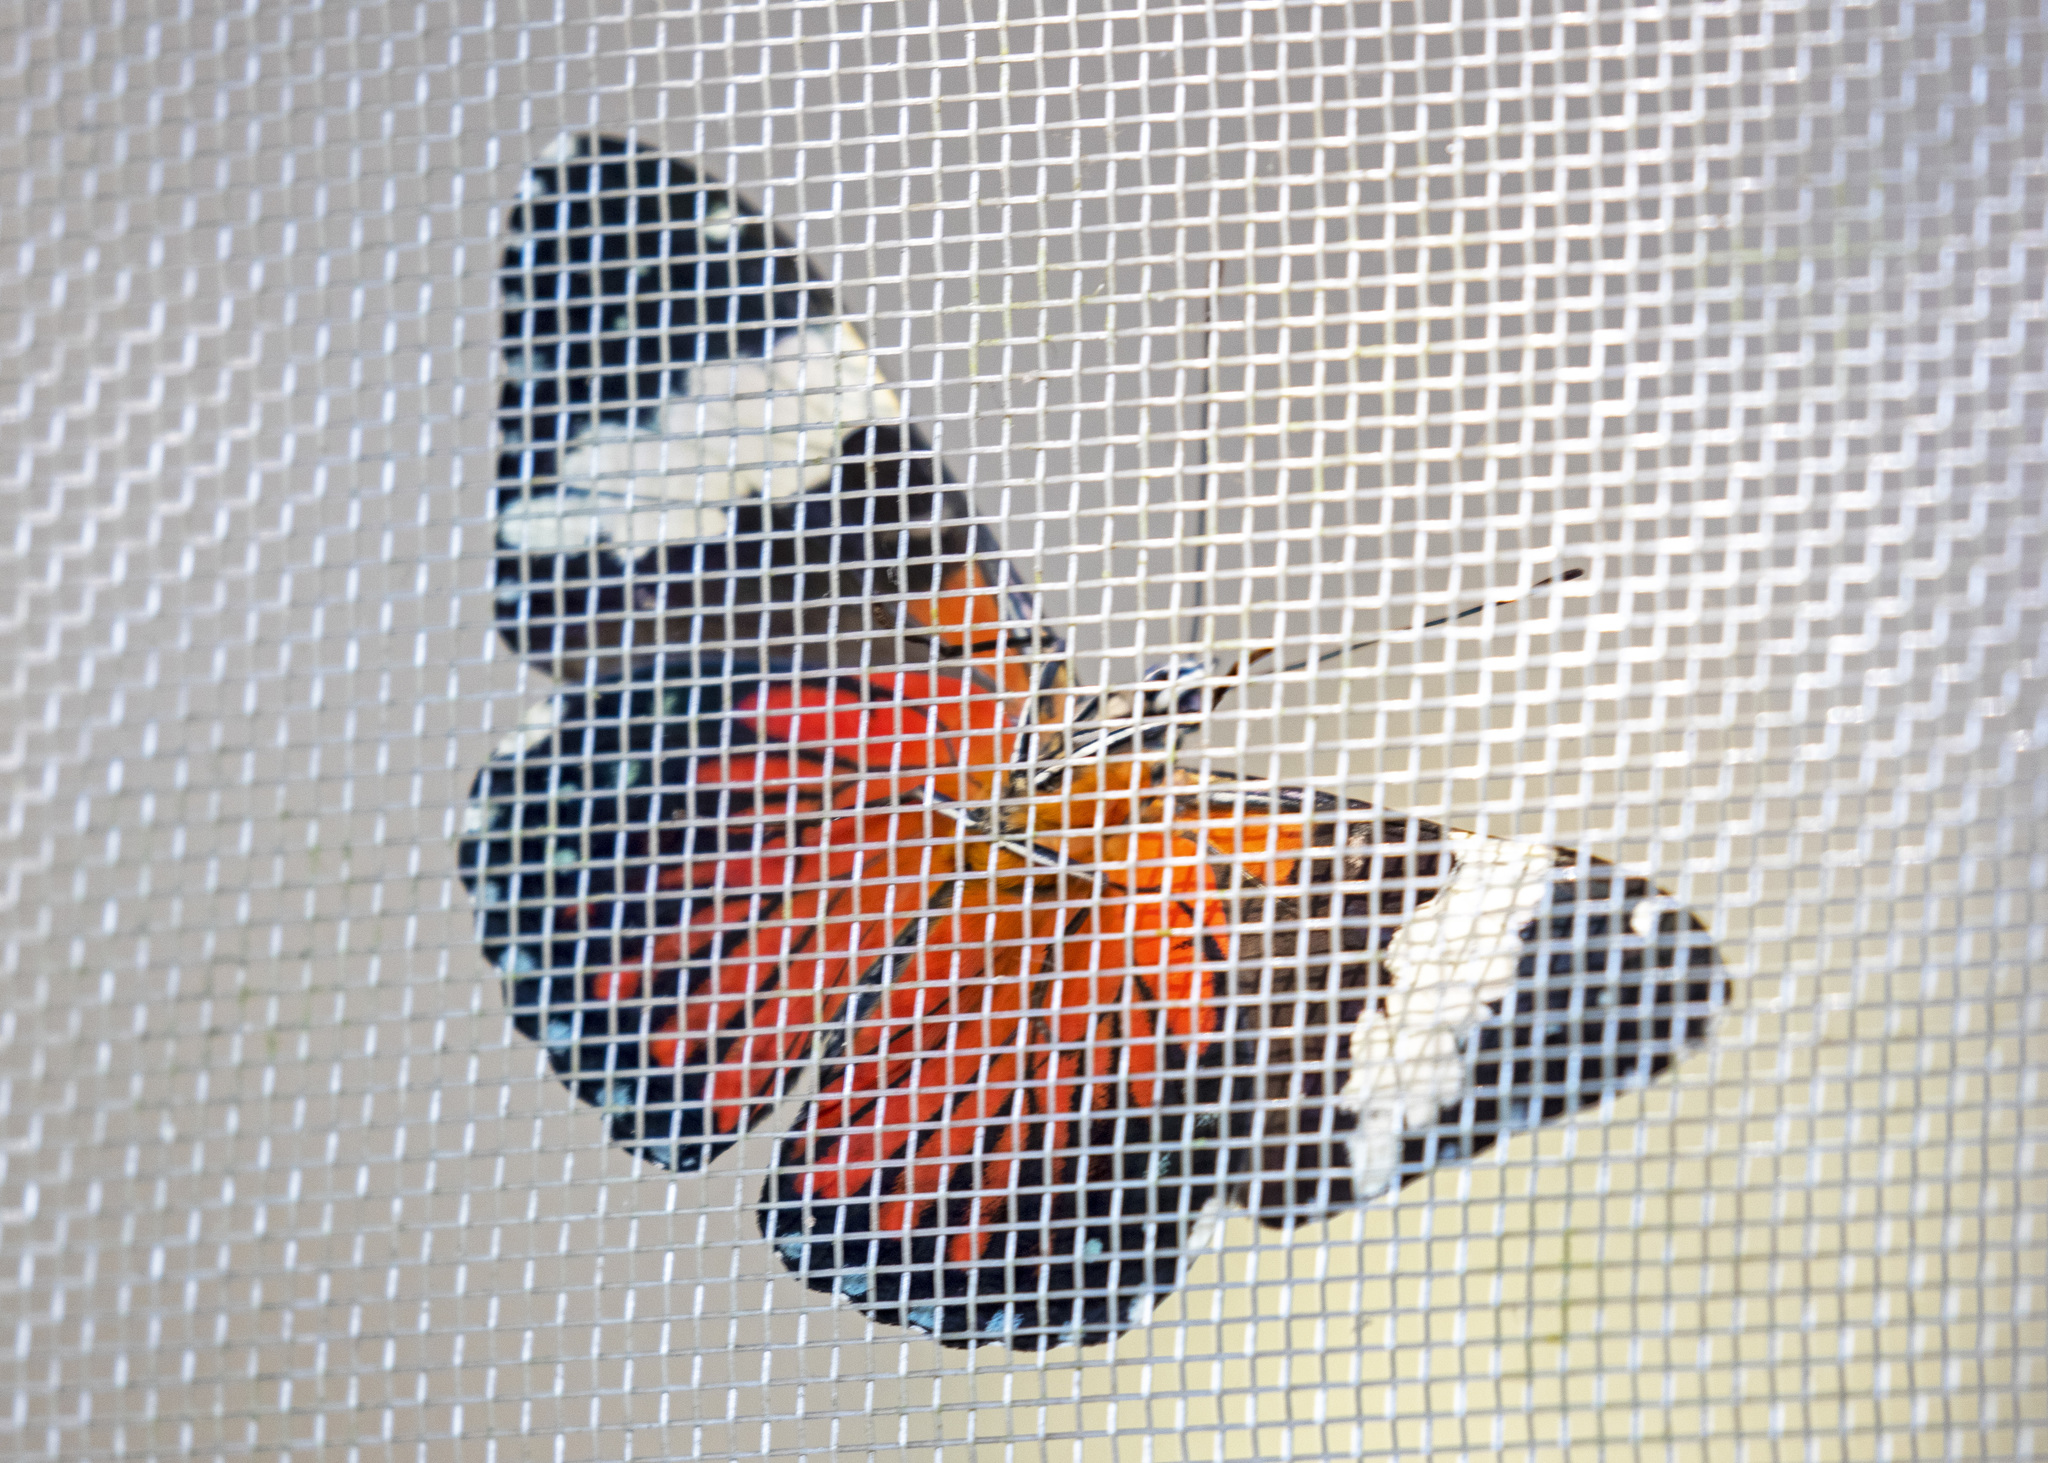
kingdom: Animalia
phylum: Arthropoda
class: Insecta
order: Lepidoptera
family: Nymphalidae
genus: Hamadryas
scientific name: Hamadryas amphinome
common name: Red cracker
